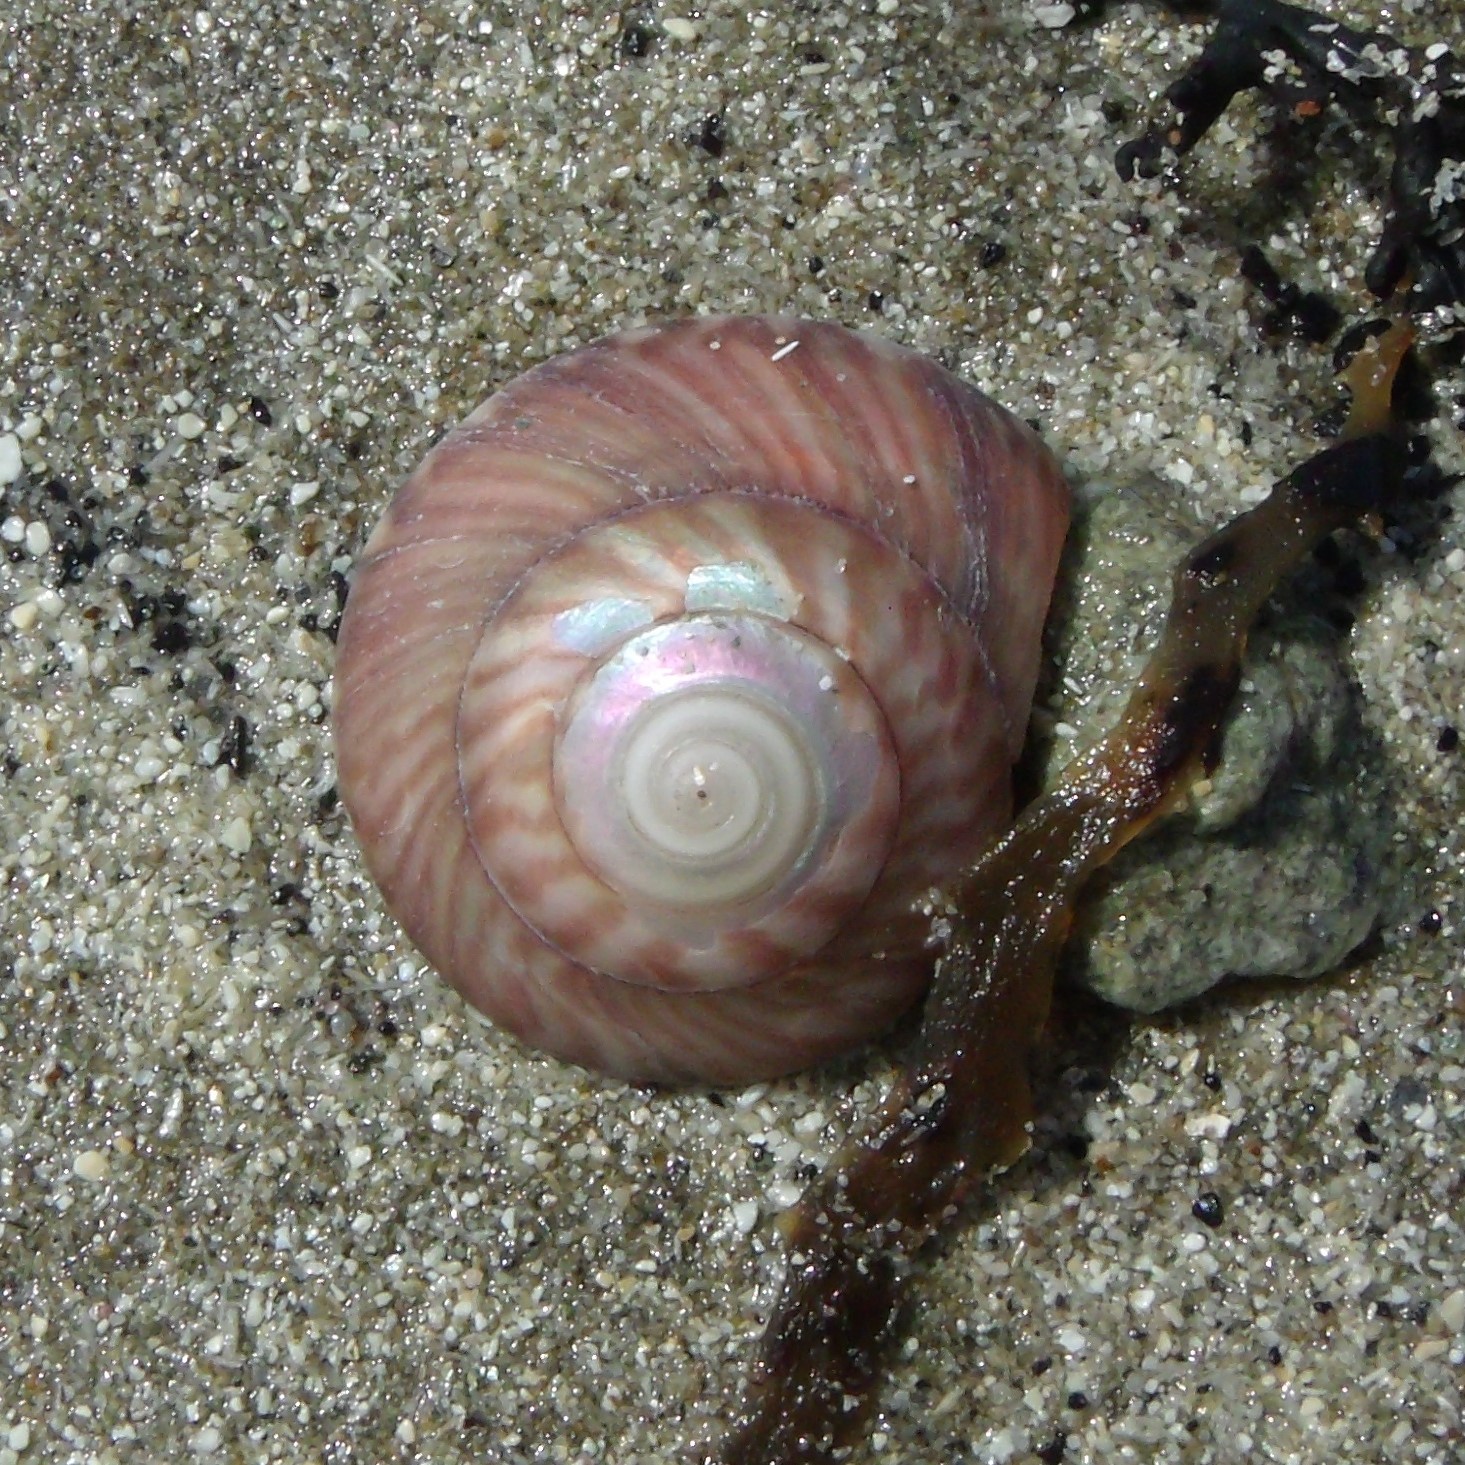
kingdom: Animalia
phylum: Mollusca
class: Gastropoda
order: Trochida
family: Trochidae
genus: Zethalia
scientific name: Zethalia zelandica
